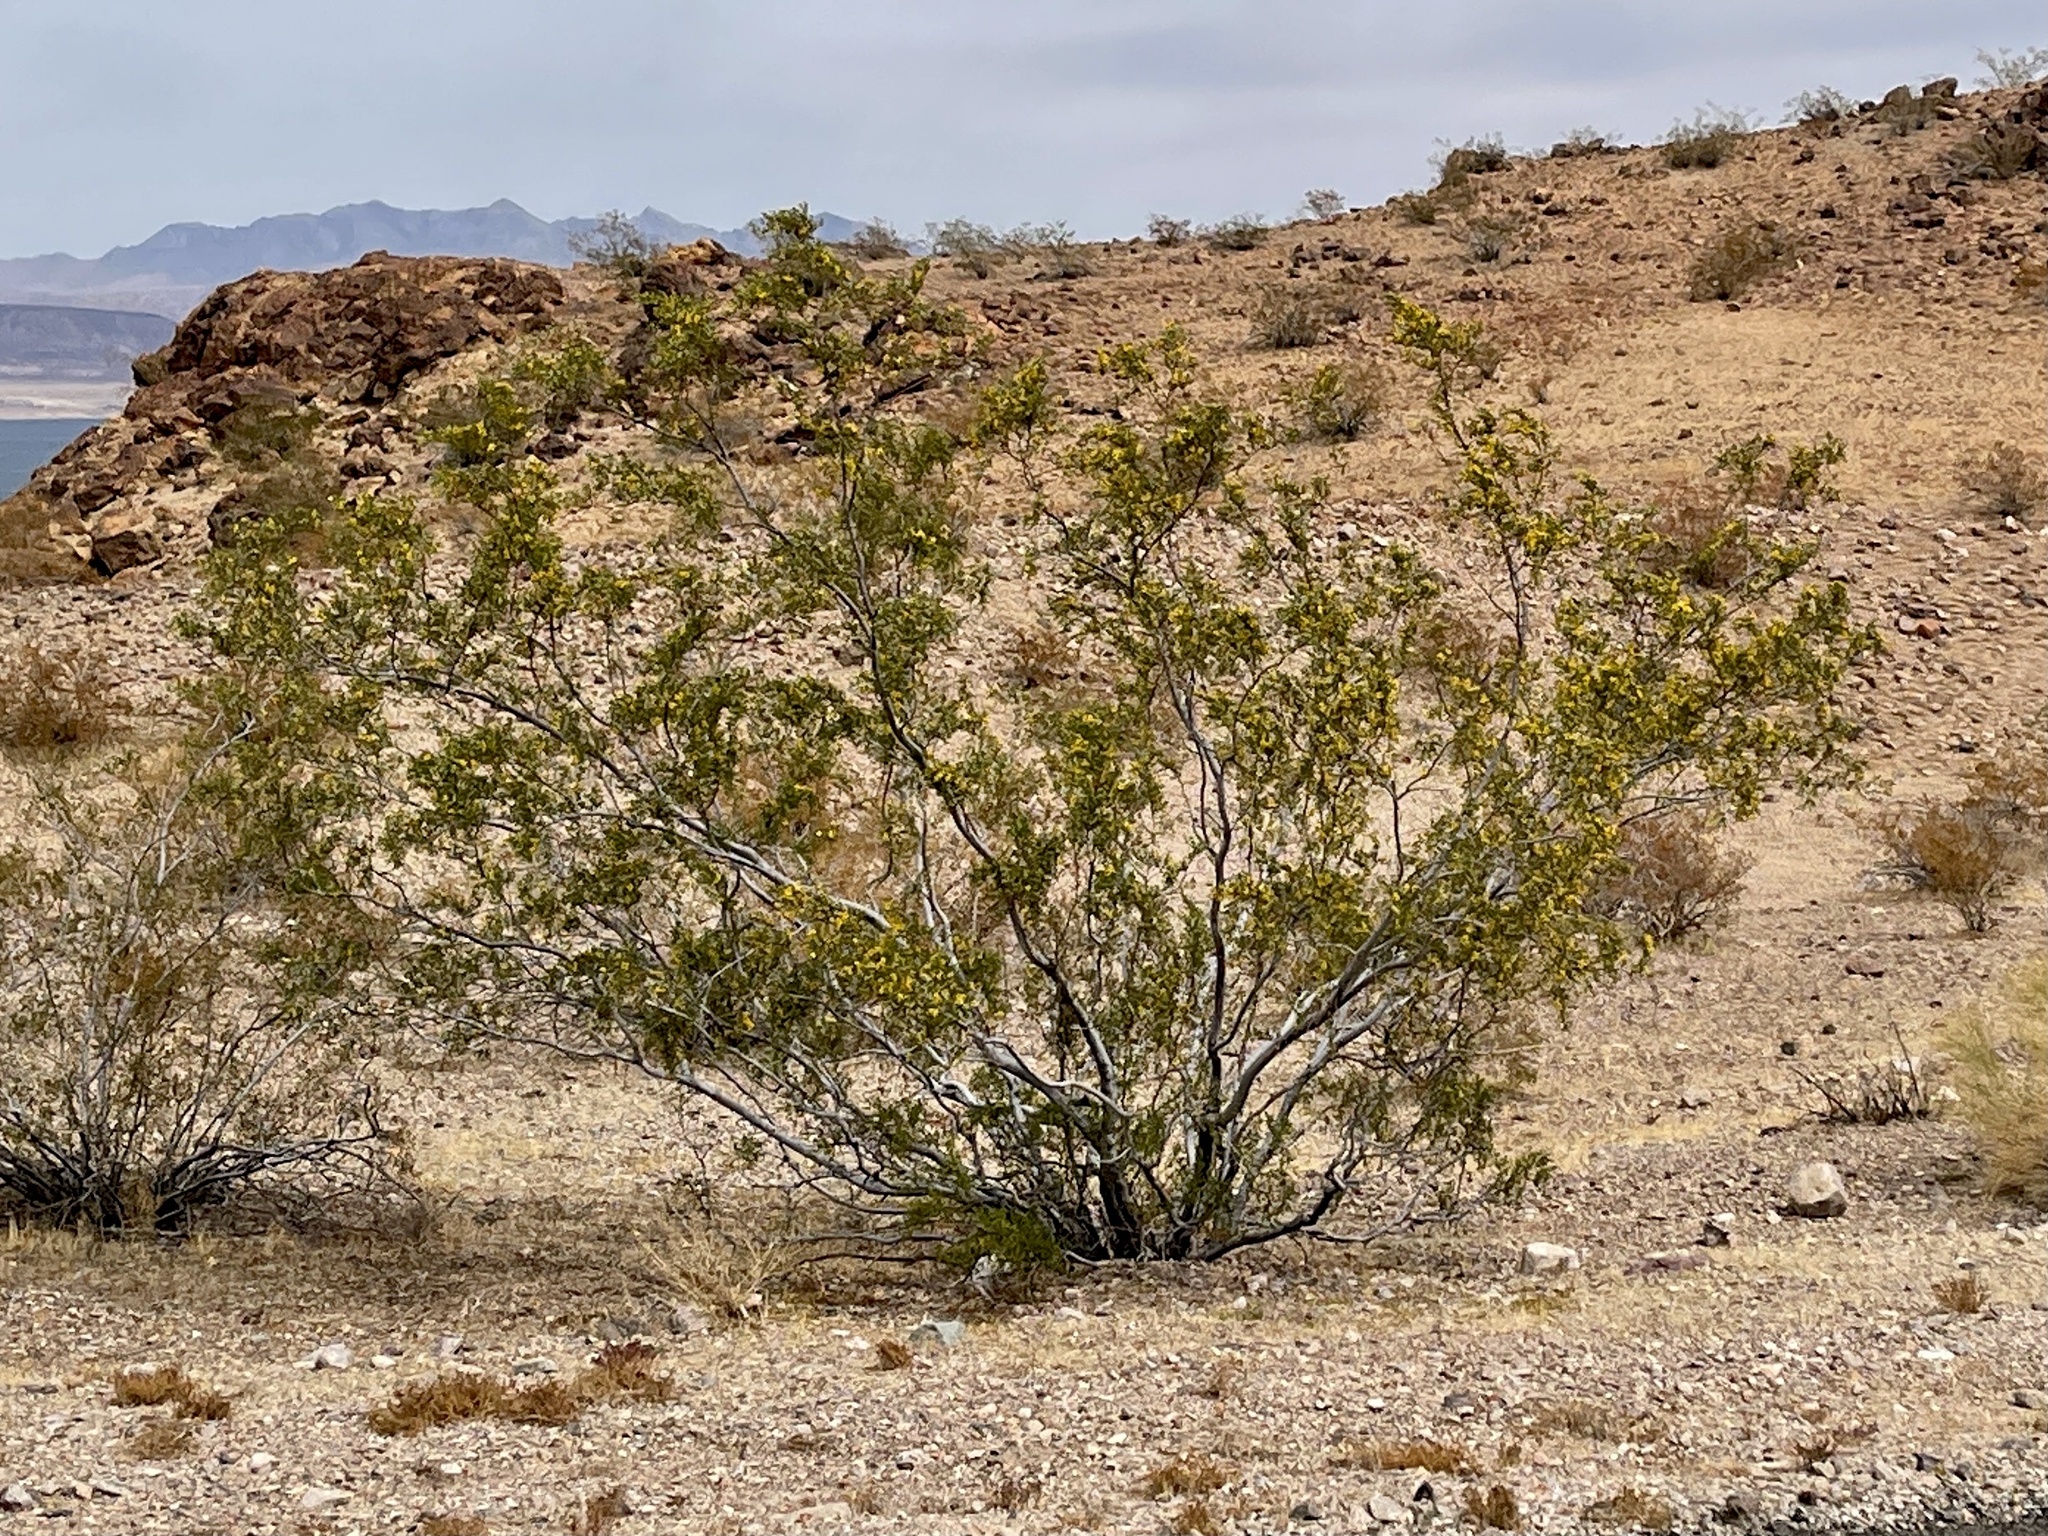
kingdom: Plantae
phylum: Tracheophyta
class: Magnoliopsida
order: Zygophyllales
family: Zygophyllaceae
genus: Larrea
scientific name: Larrea tridentata
